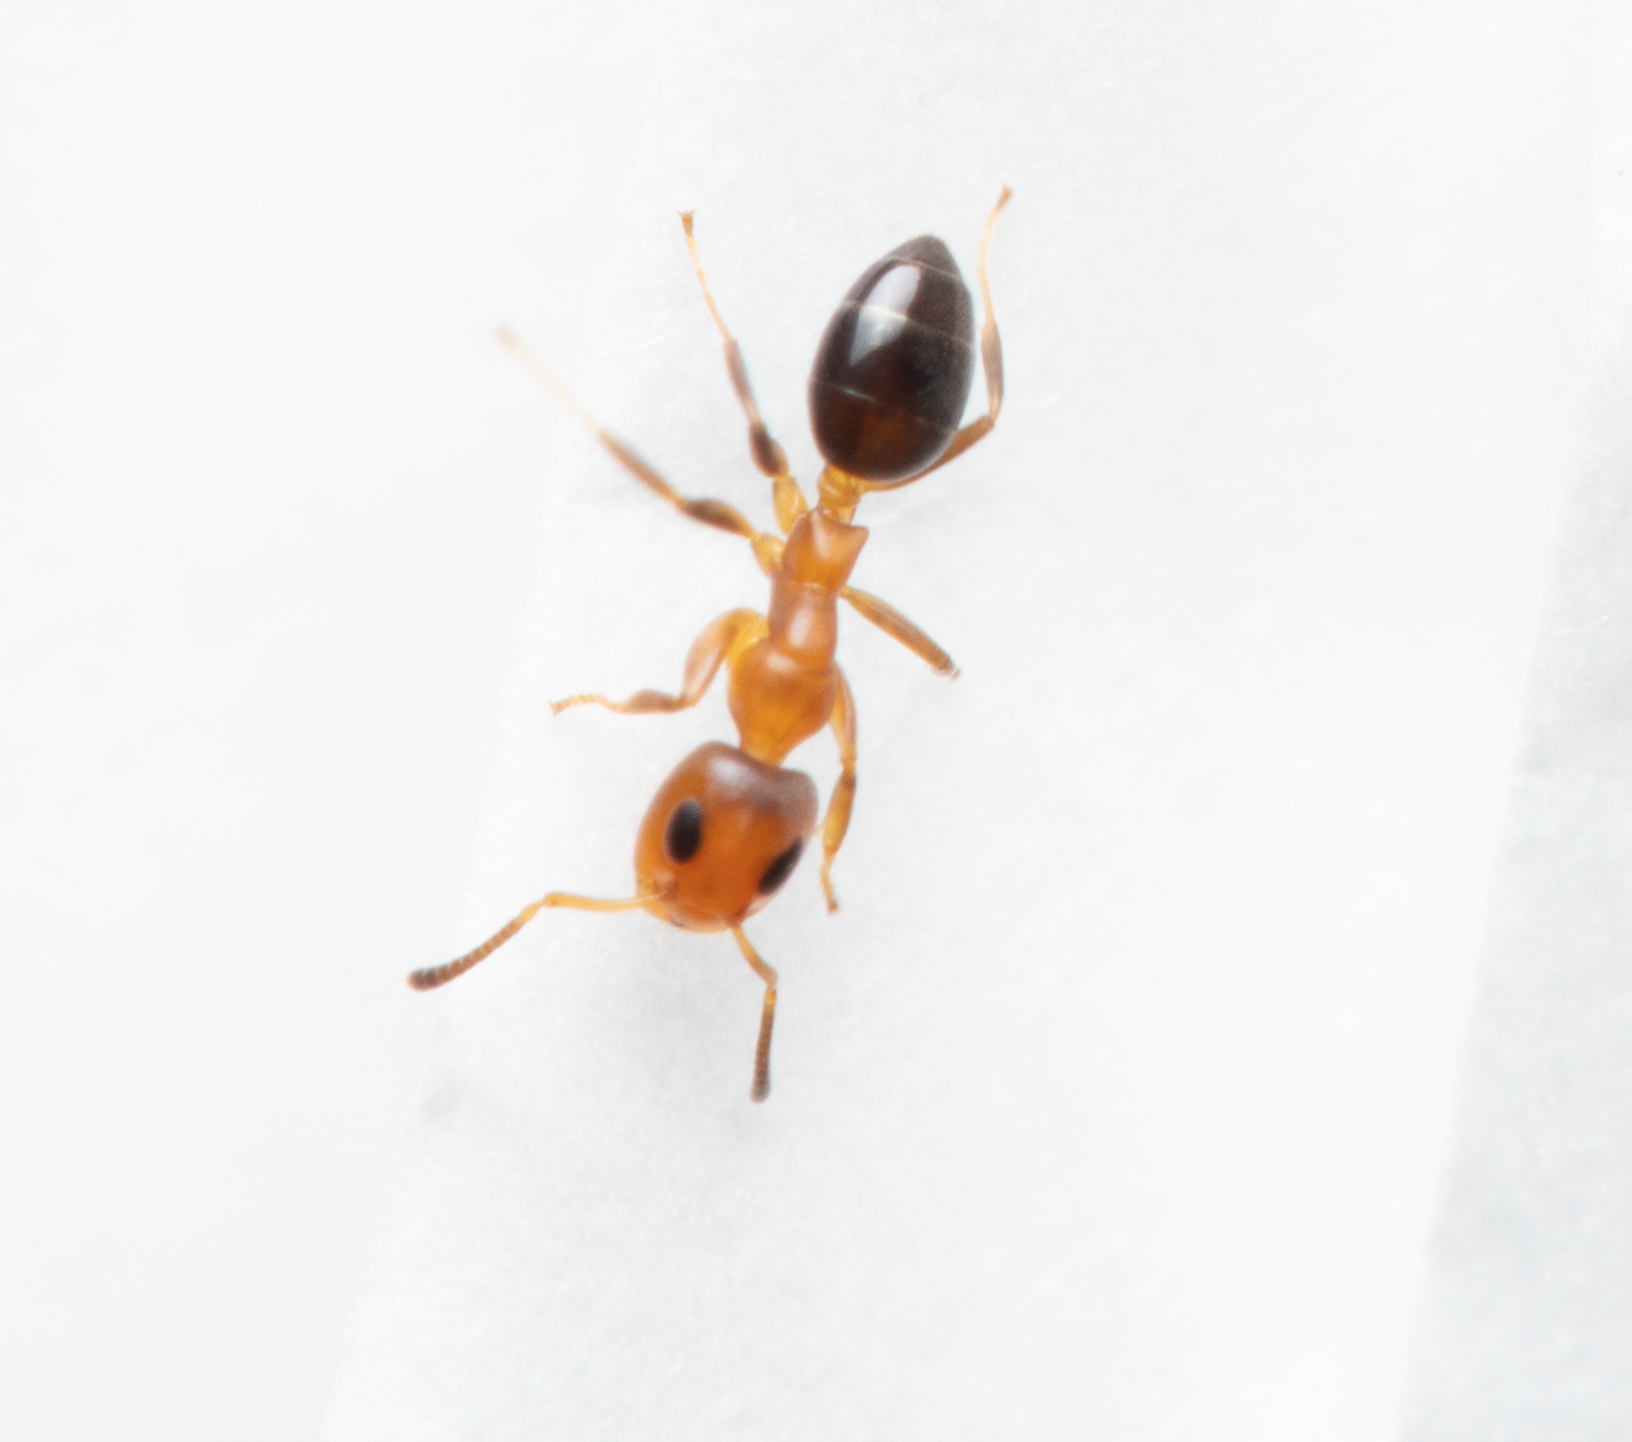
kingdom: Animalia
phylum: Arthropoda
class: Insecta
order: Hymenoptera
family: Formicidae
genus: Turneria
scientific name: Turneria bidentata
